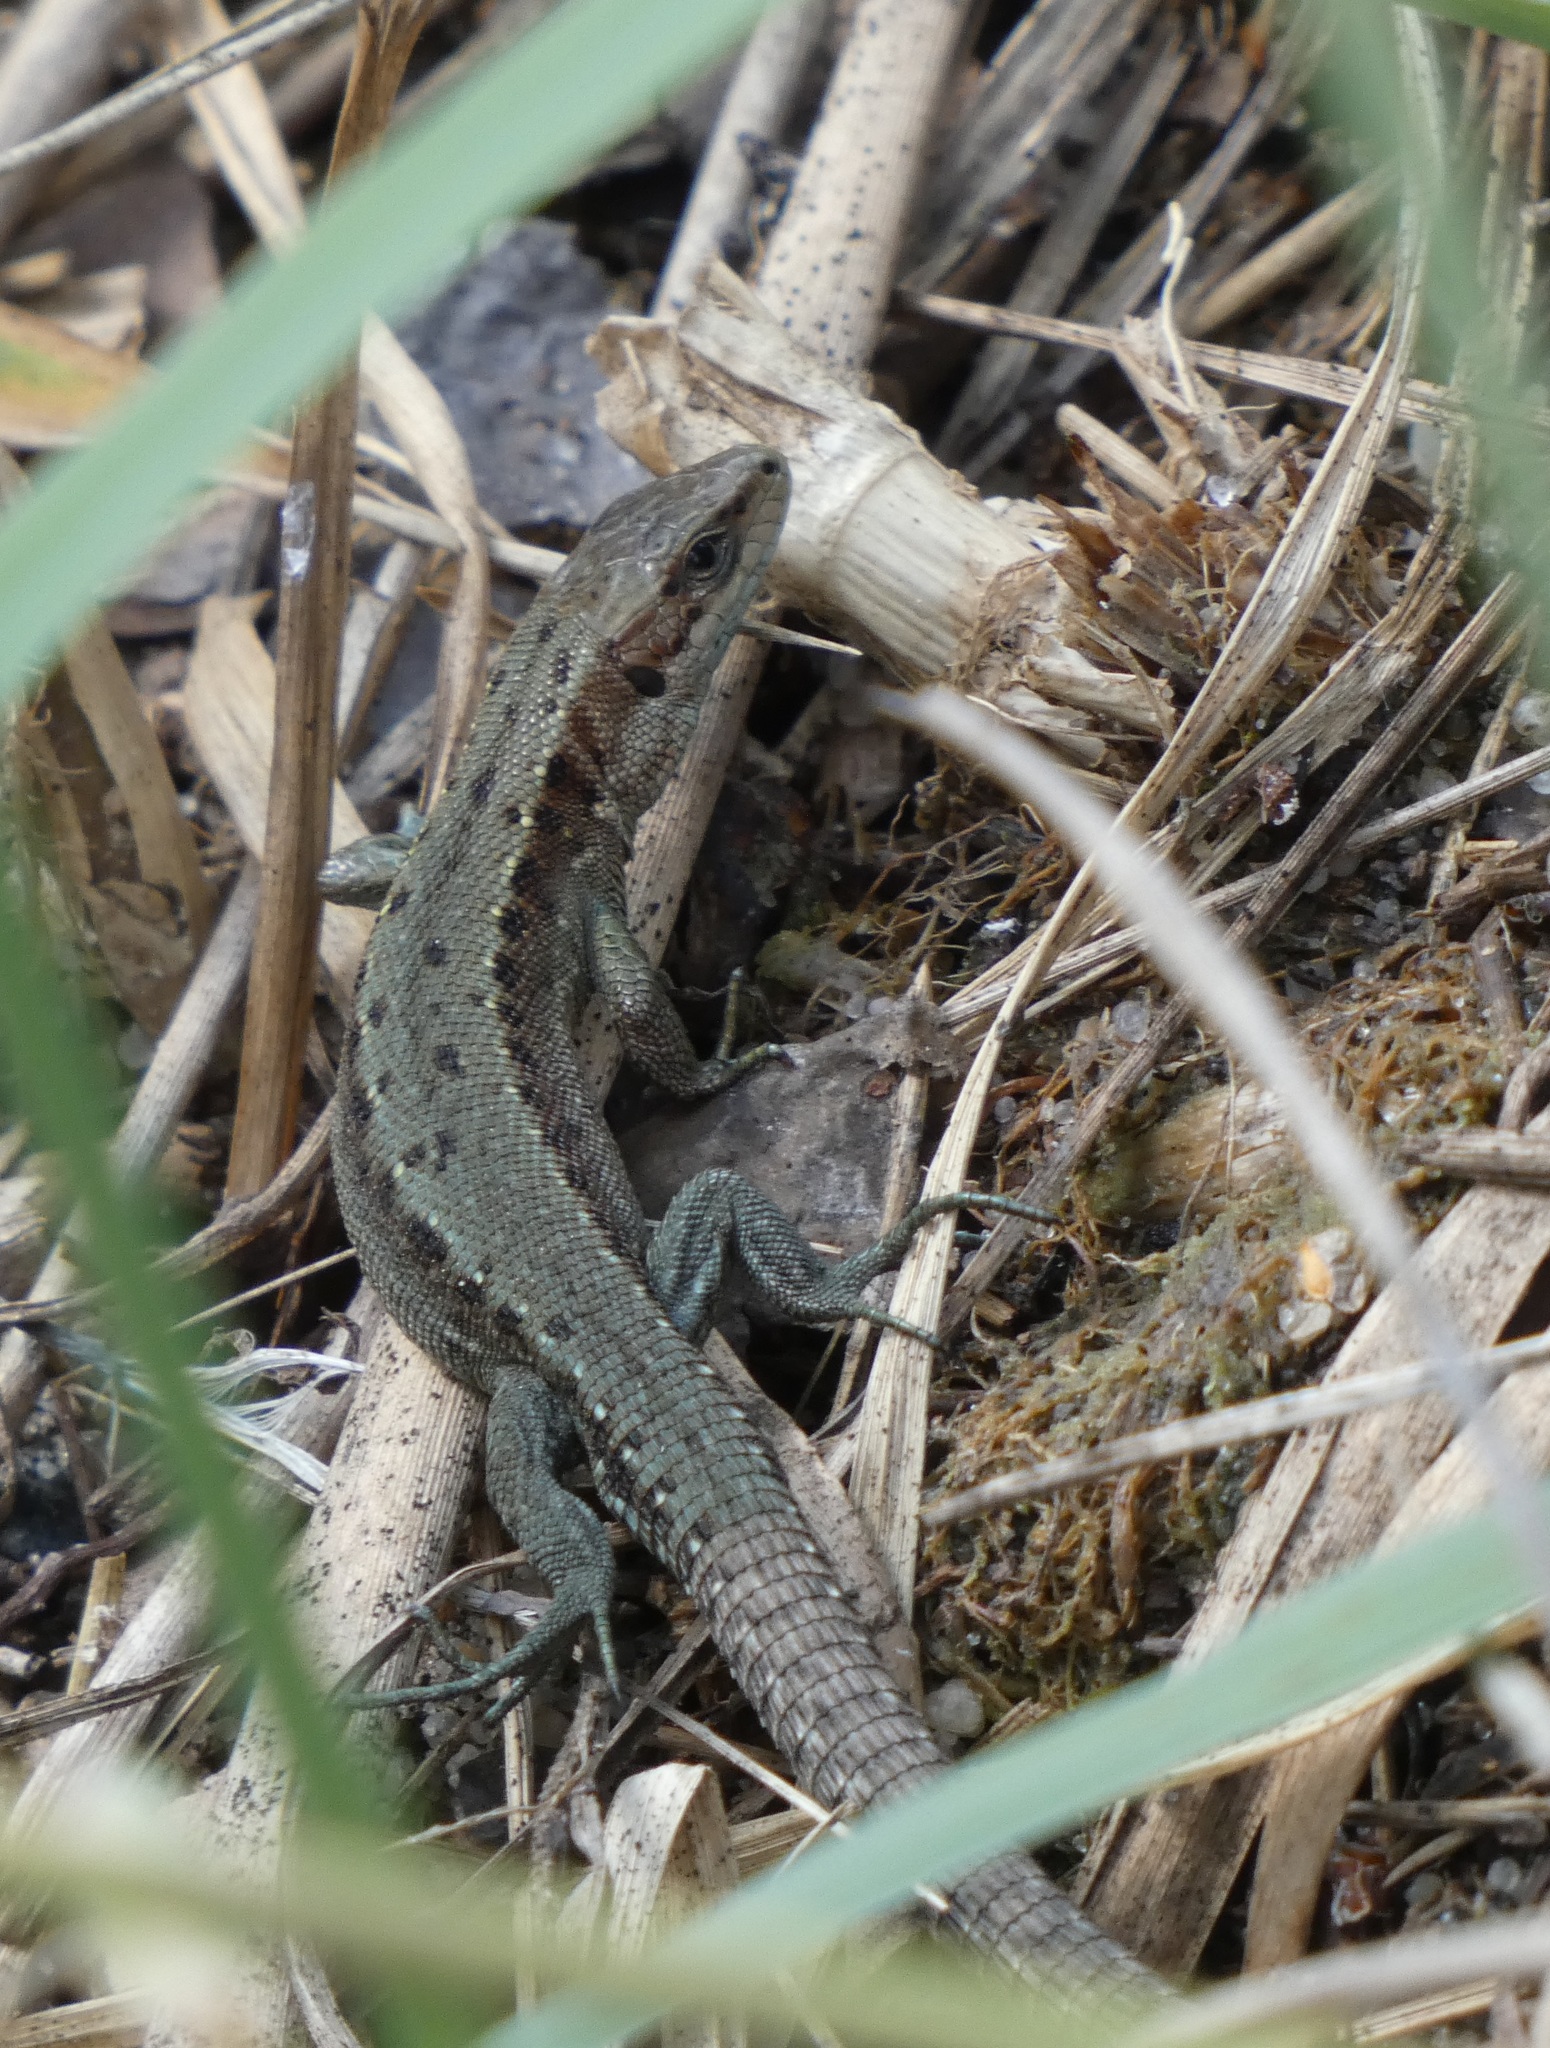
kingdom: Animalia
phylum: Chordata
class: Squamata
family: Lacertidae
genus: Zootoca
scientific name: Zootoca vivipara
